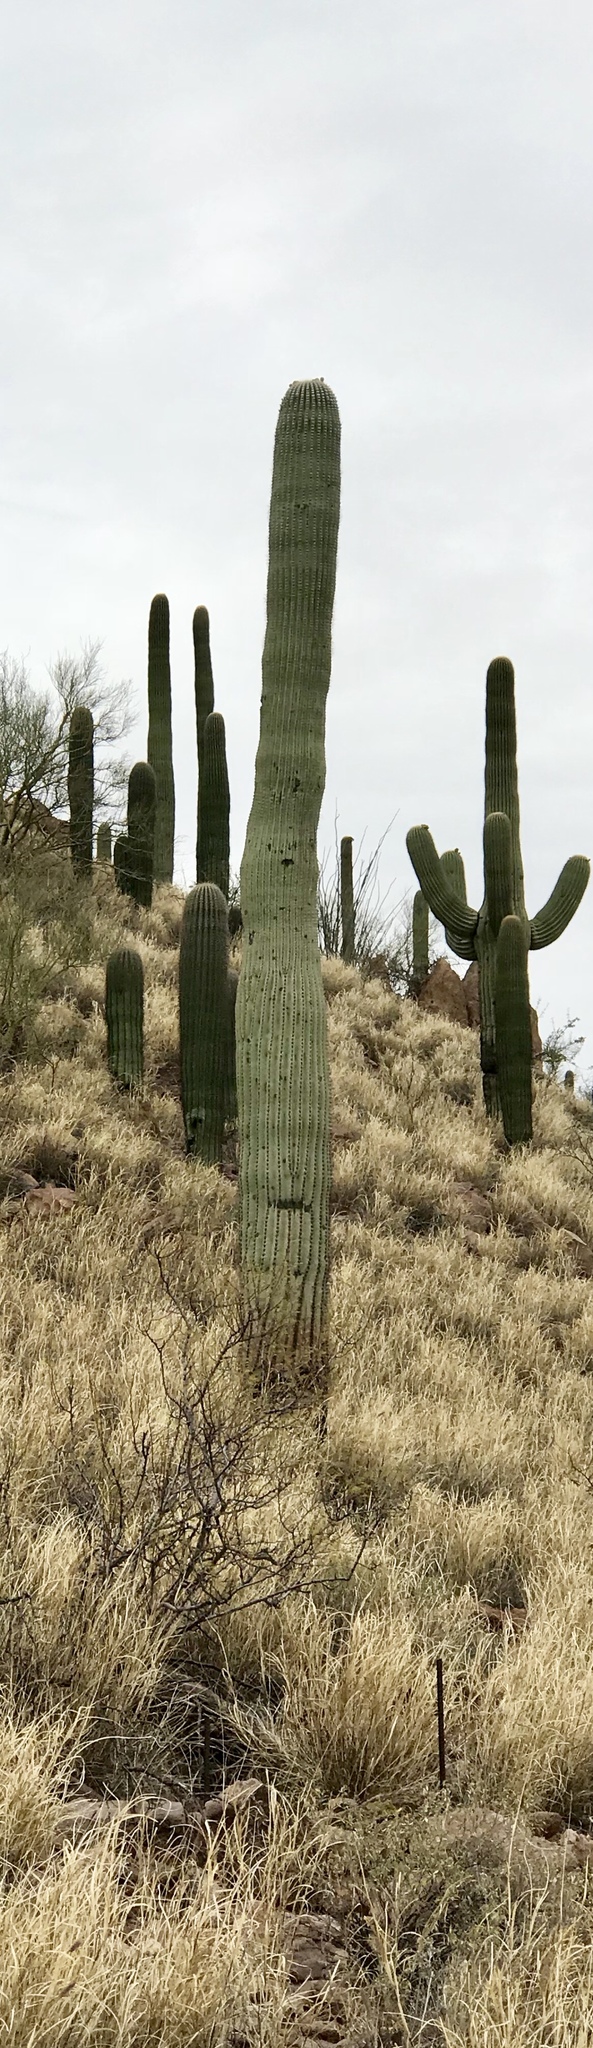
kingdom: Plantae
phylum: Tracheophyta
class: Magnoliopsida
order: Caryophyllales
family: Cactaceae
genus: Carnegiea
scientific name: Carnegiea gigantea
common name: Saguaro
